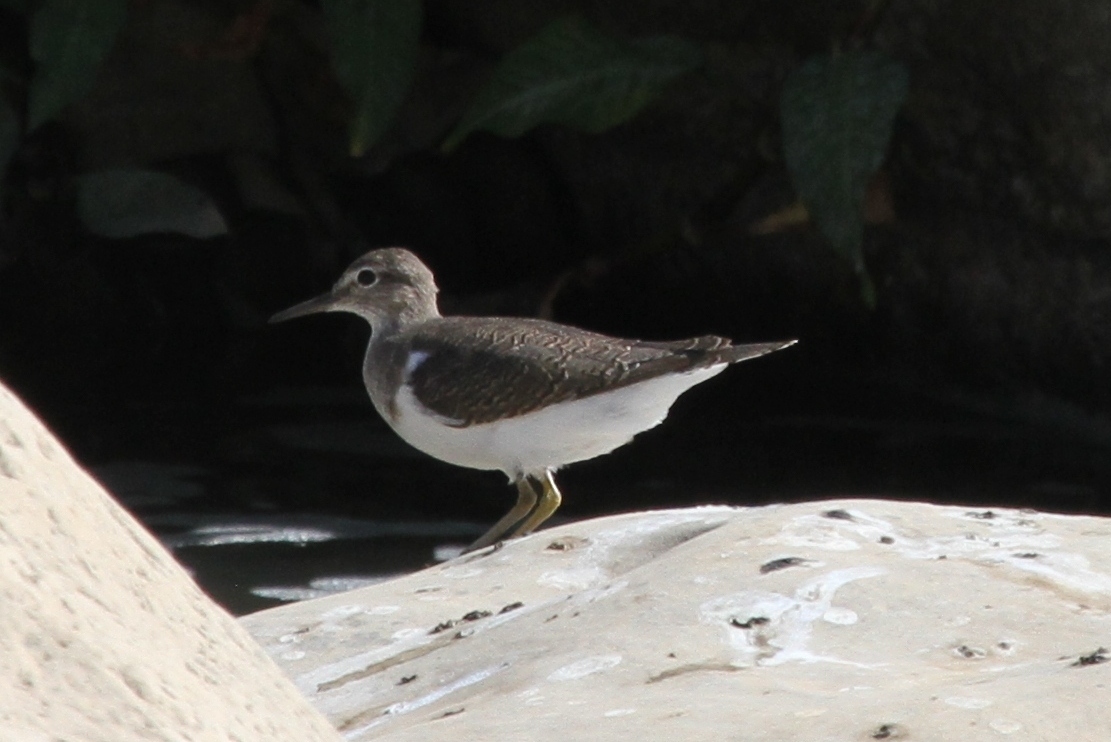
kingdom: Animalia
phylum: Chordata
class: Aves
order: Charadriiformes
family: Scolopacidae
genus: Actitis
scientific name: Actitis hypoleucos
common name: Common sandpiper
